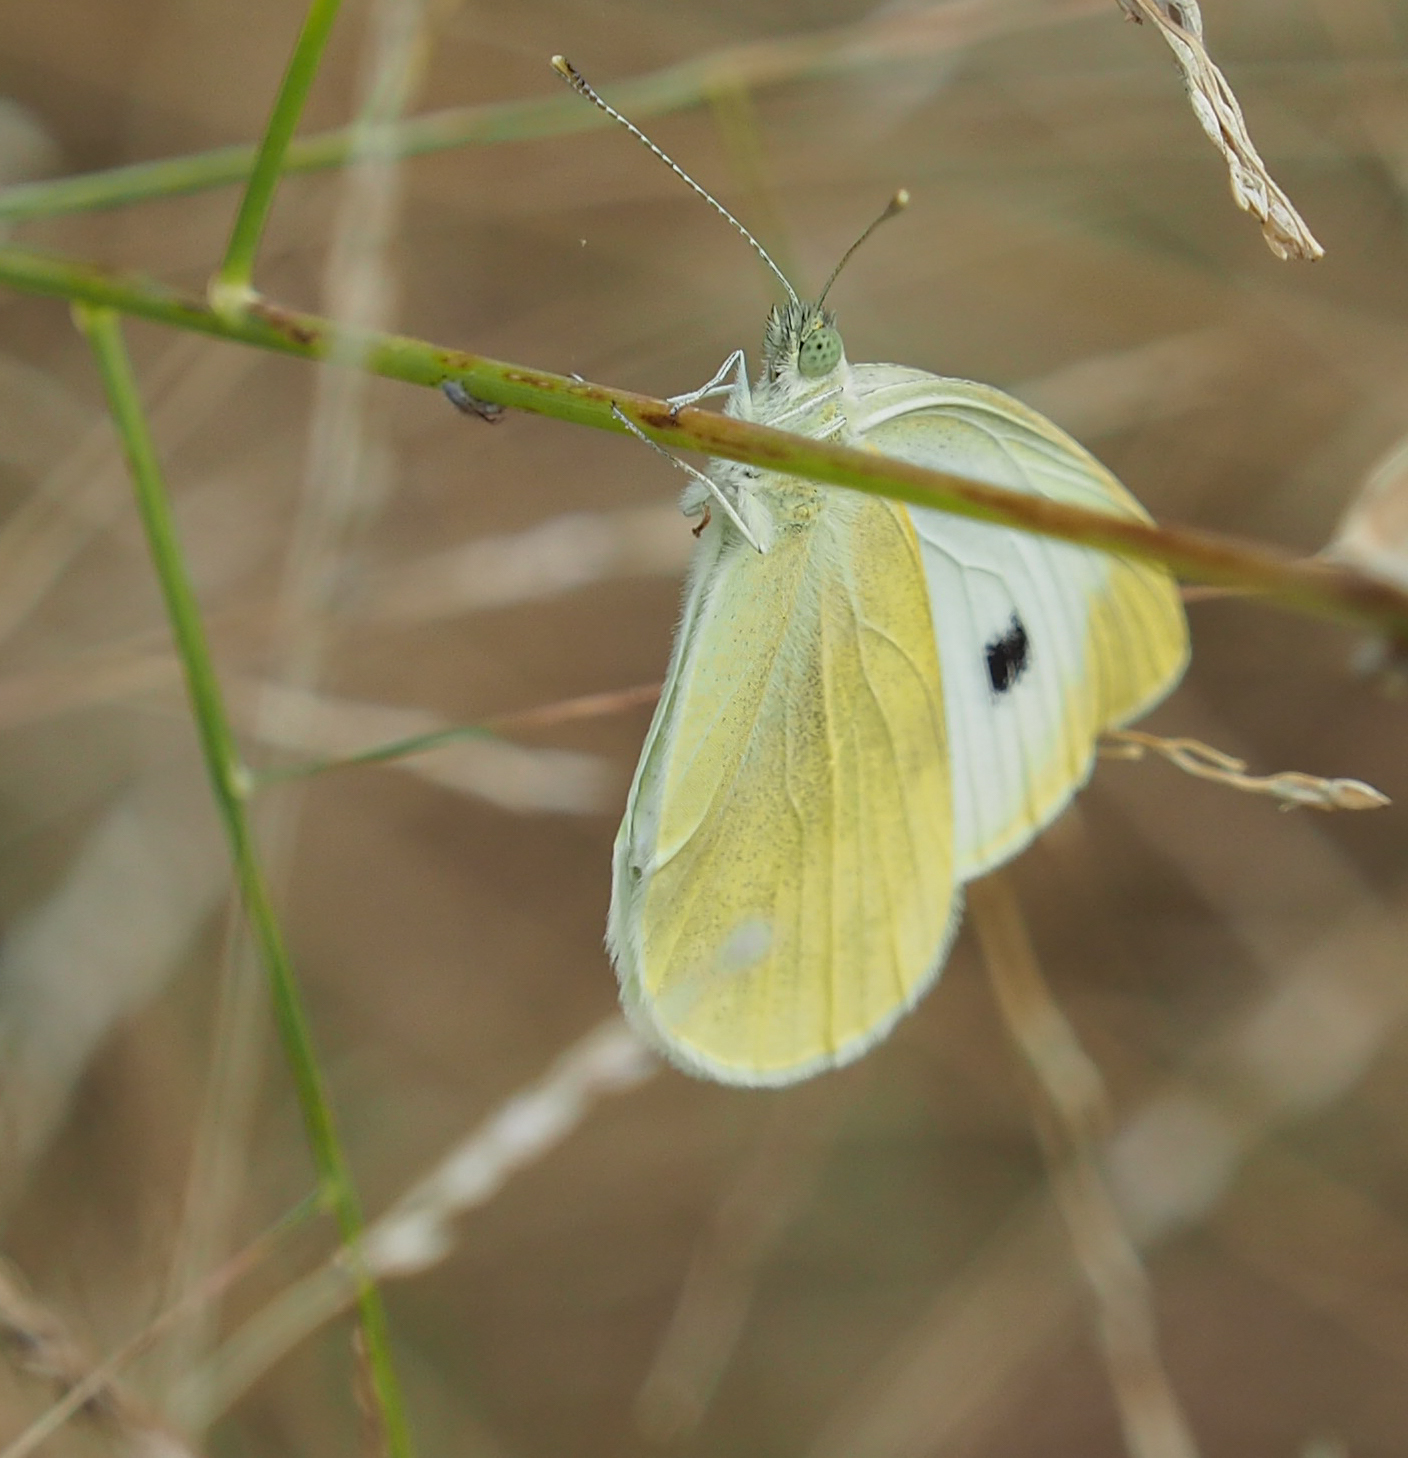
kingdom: Animalia
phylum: Arthropoda
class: Insecta
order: Lepidoptera
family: Pieridae
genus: Pieris
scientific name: Pieris rapae
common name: Small white
